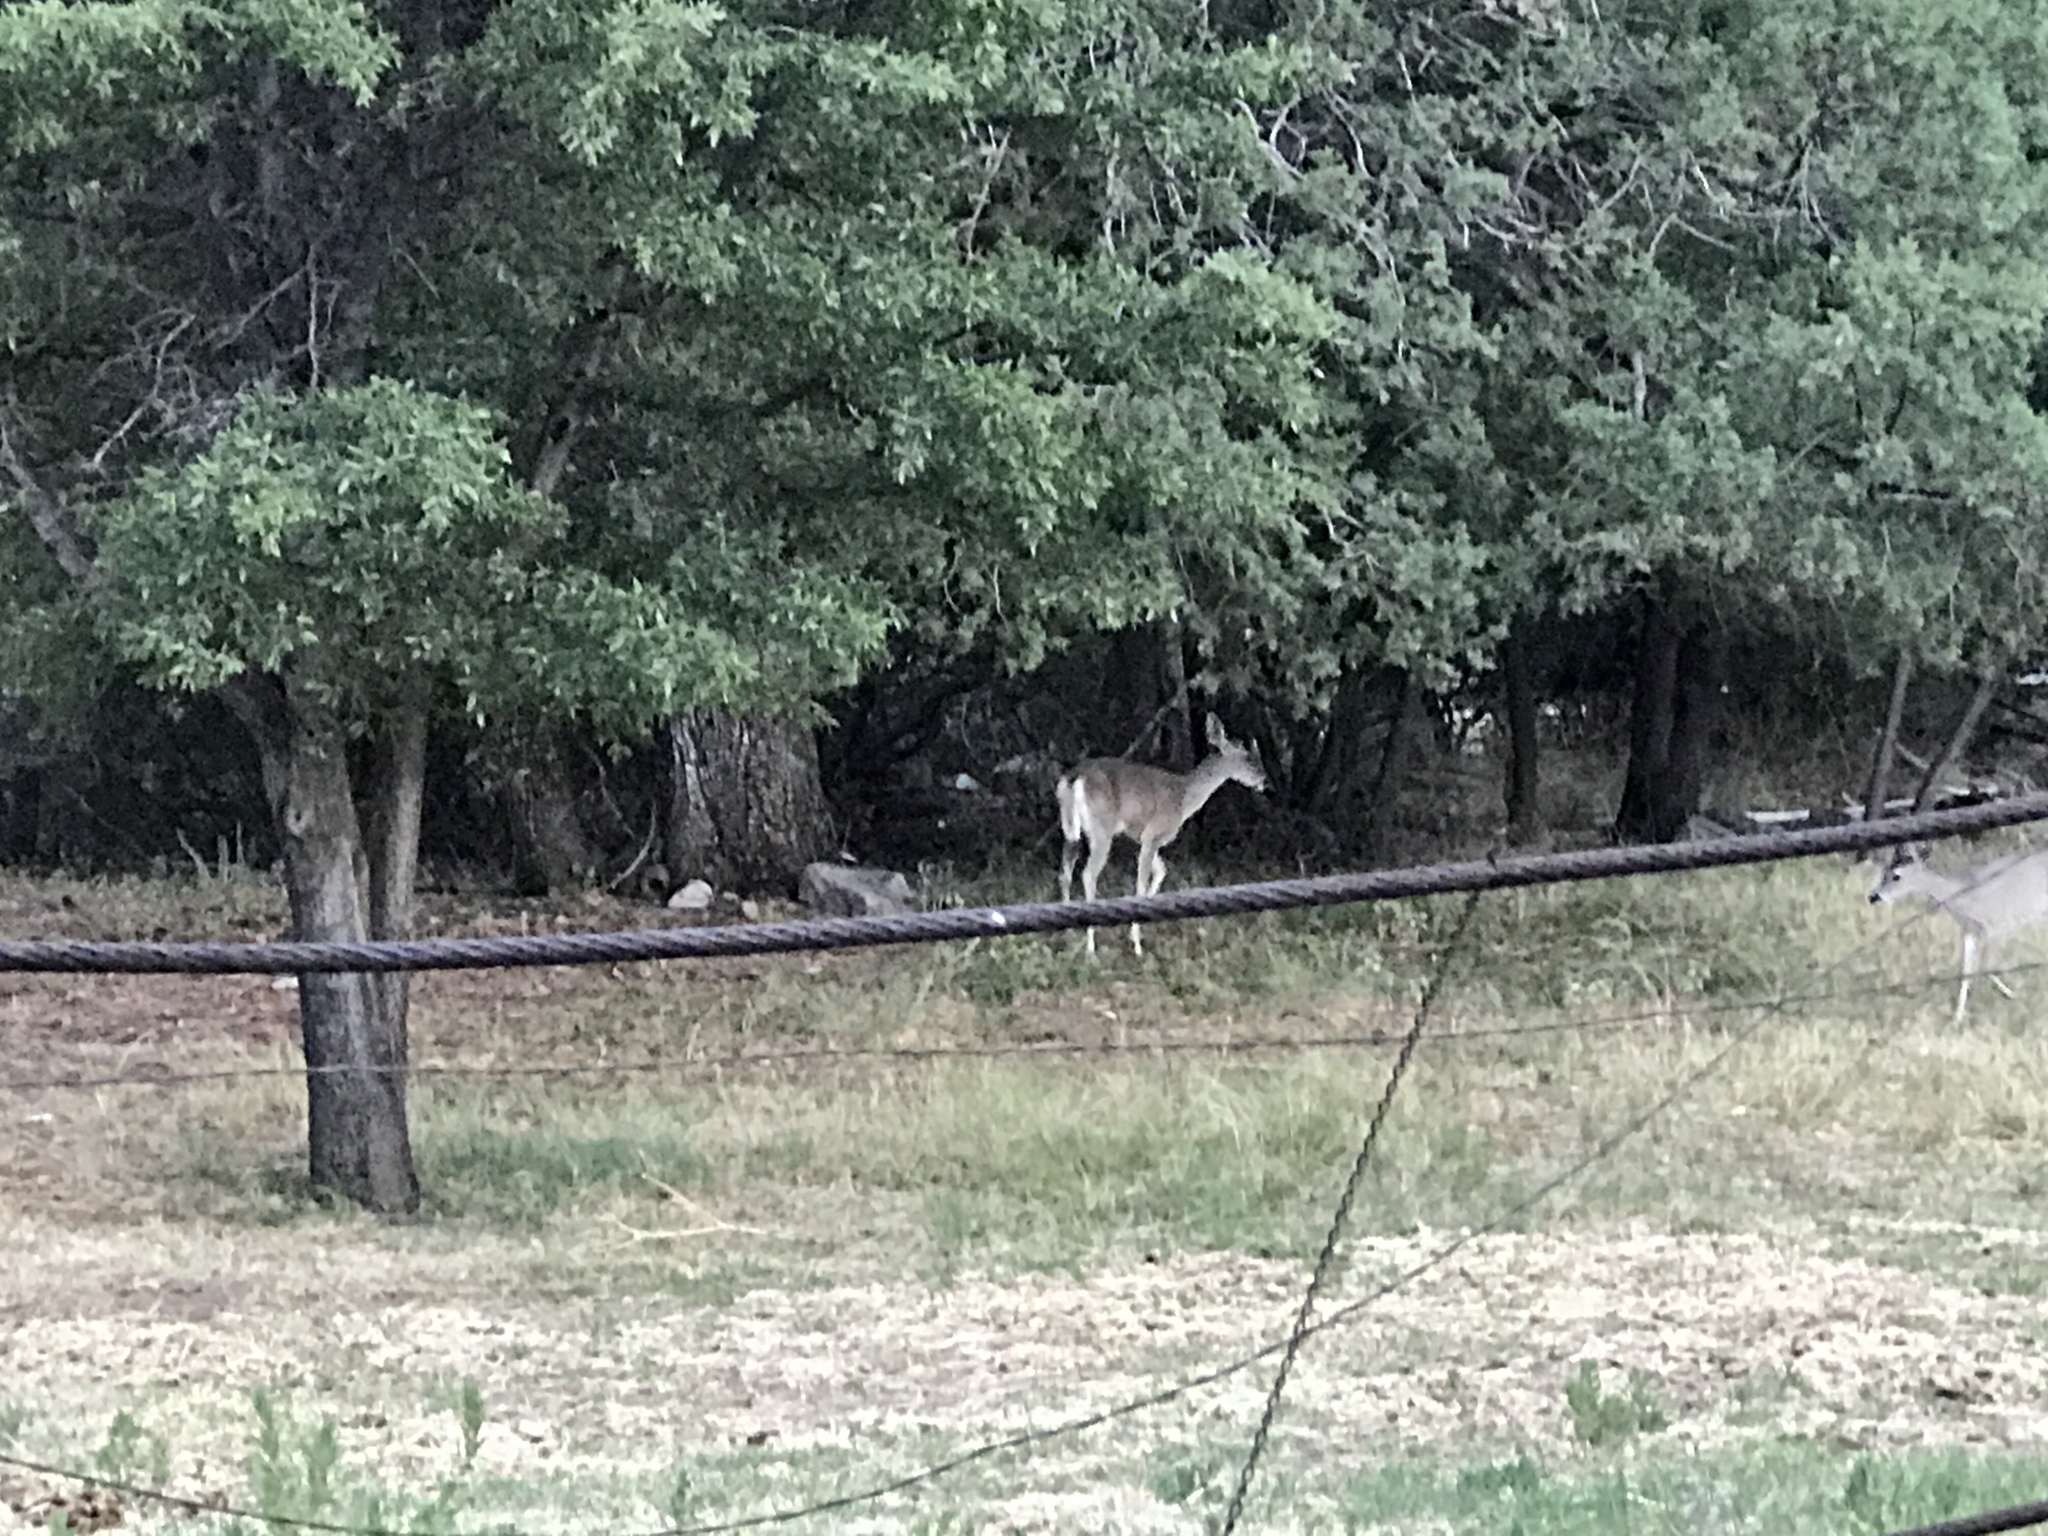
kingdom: Animalia
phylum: Chordata
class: Mammalia
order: Artiodactyla
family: Cervidae
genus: Odocoileus
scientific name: Odocoileus virginianus
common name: White-tailed deer
